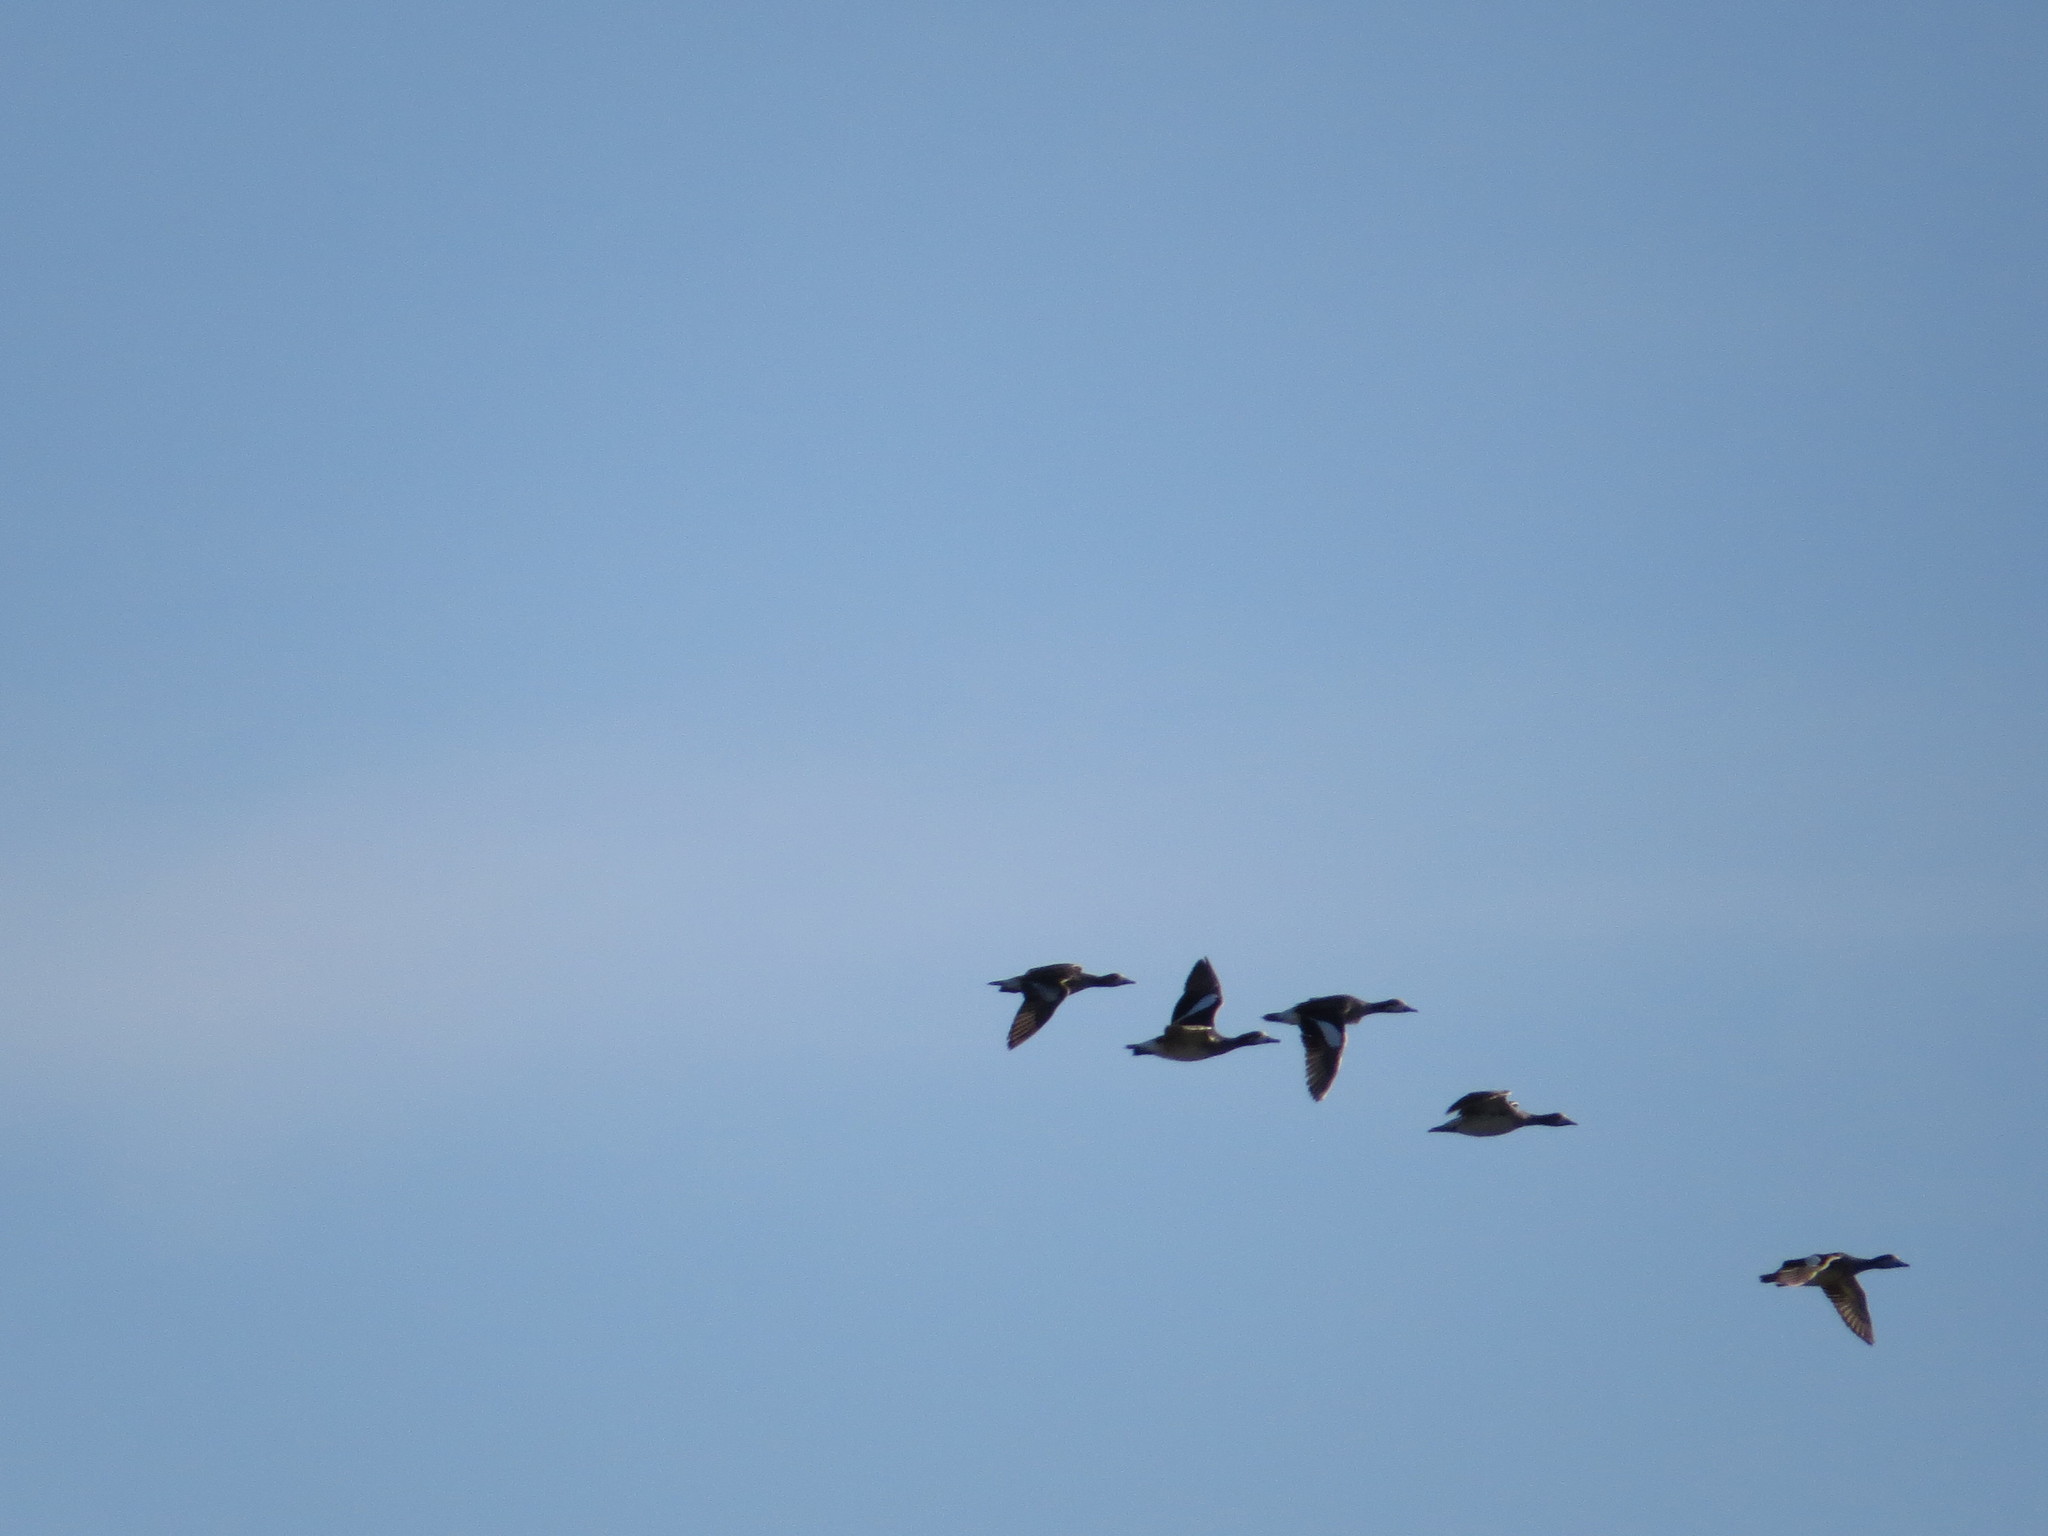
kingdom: Animalia
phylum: Chordata
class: Aves
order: Anseriformes
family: Anatidae
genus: Mareca
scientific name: Mareca sibilatrix
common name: Chiloe wigeon
